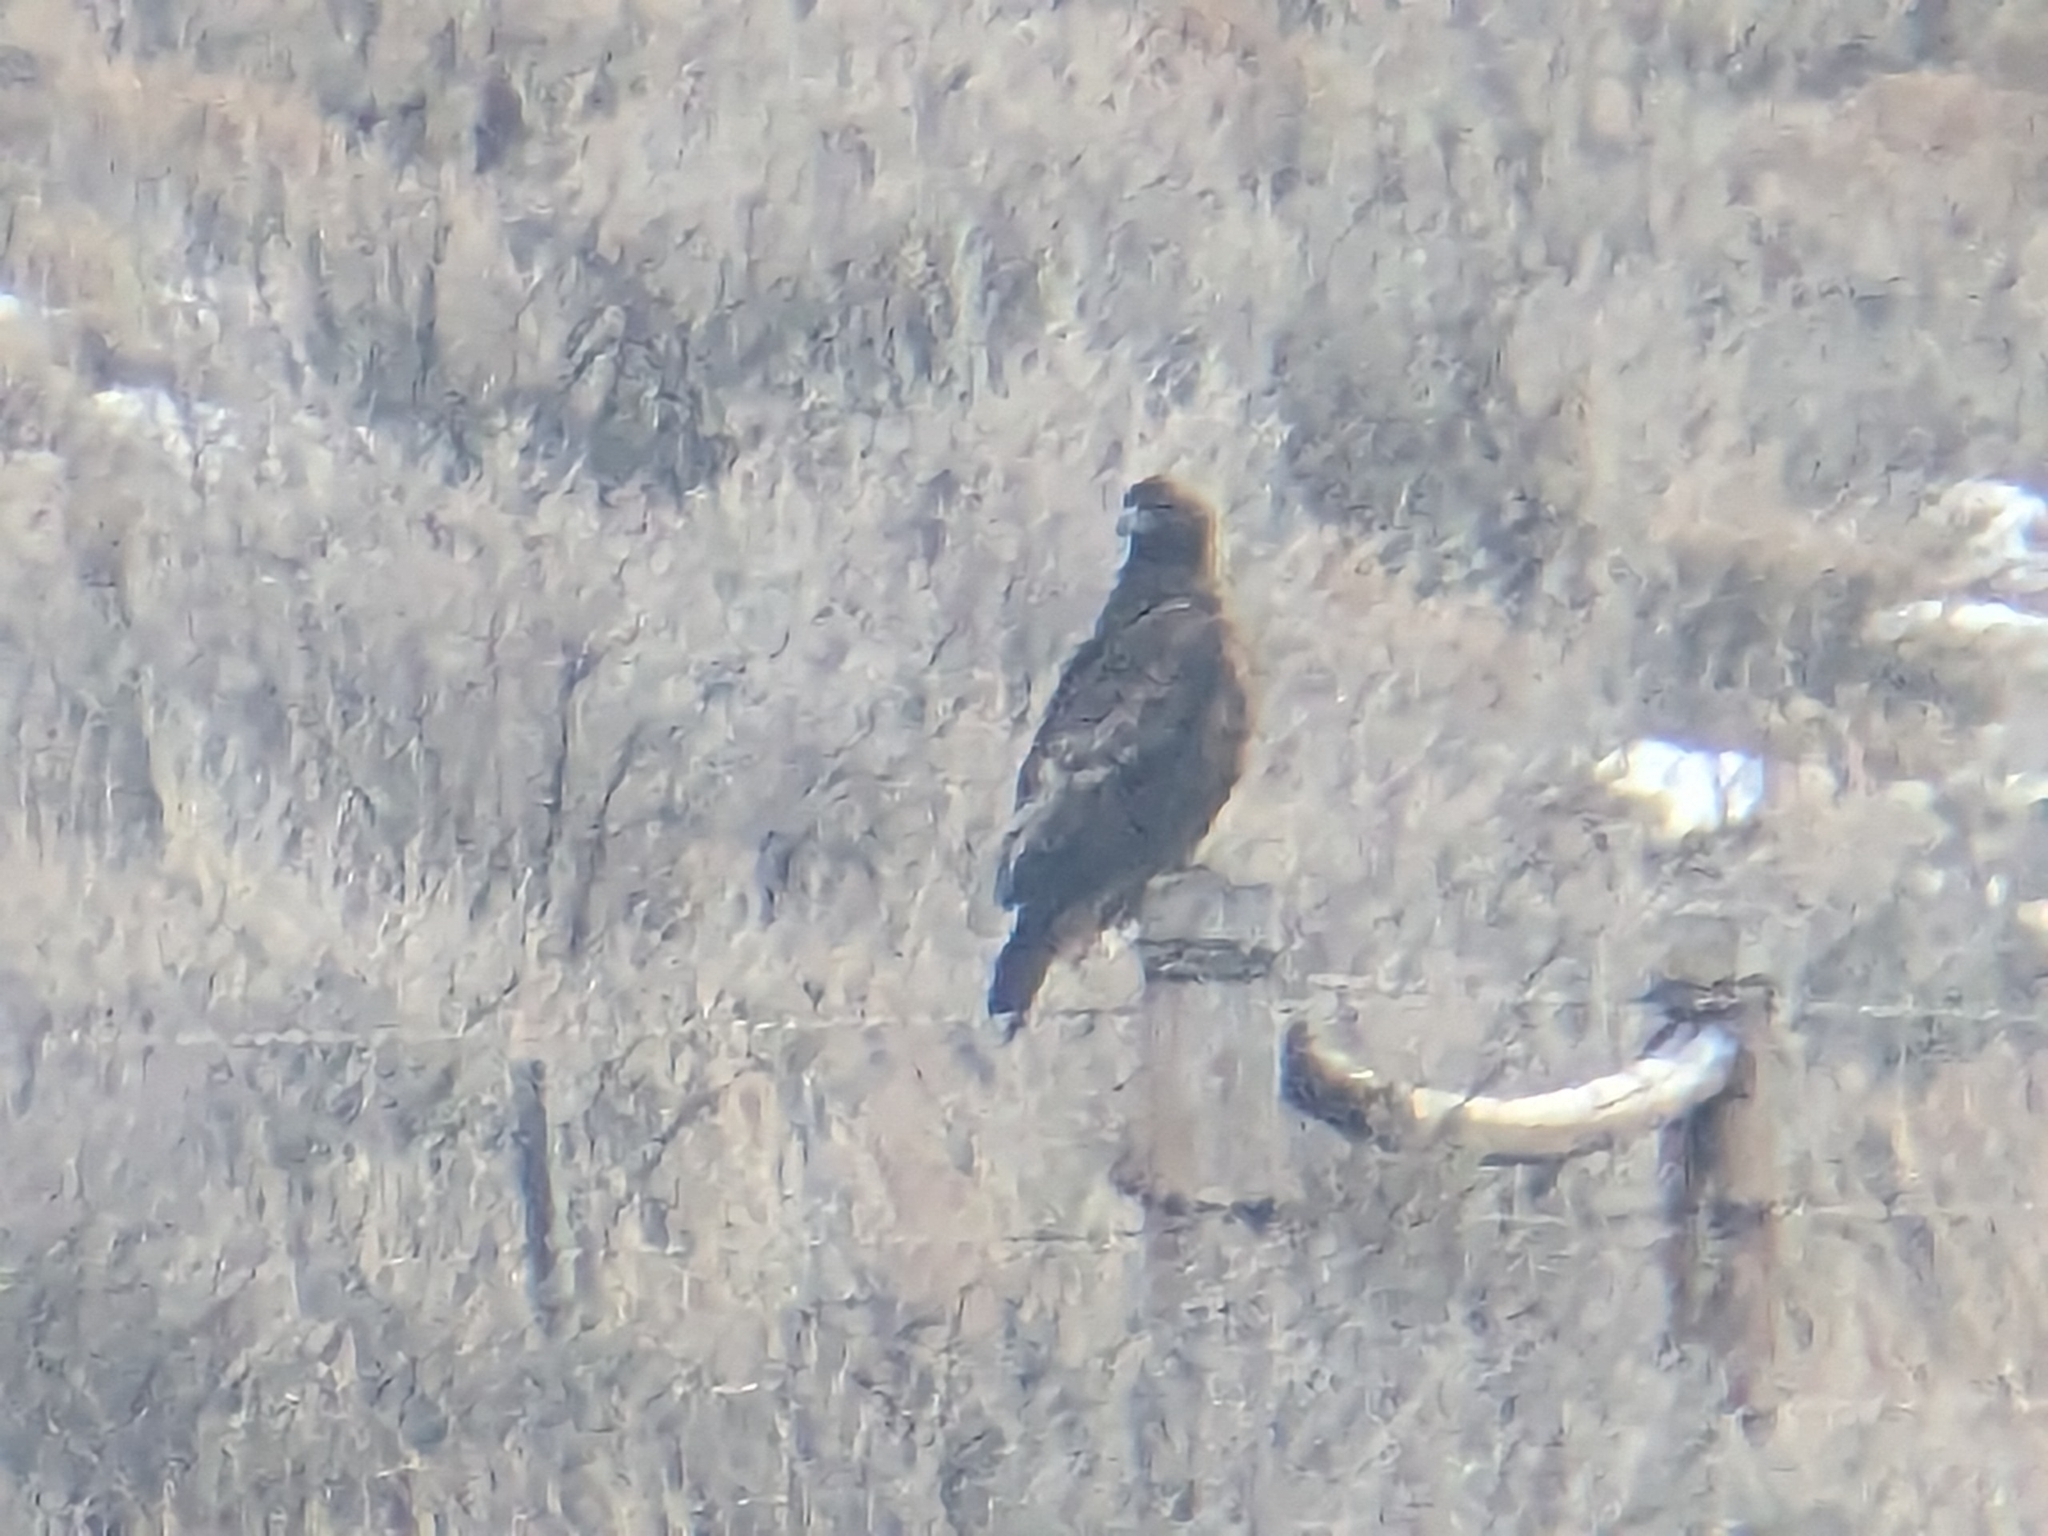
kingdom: Animalia
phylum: Chordata
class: Aves
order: Accipitriformes
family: Accipitridae
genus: Aquila
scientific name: Aquila chrysaetos
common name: Golden eagle
